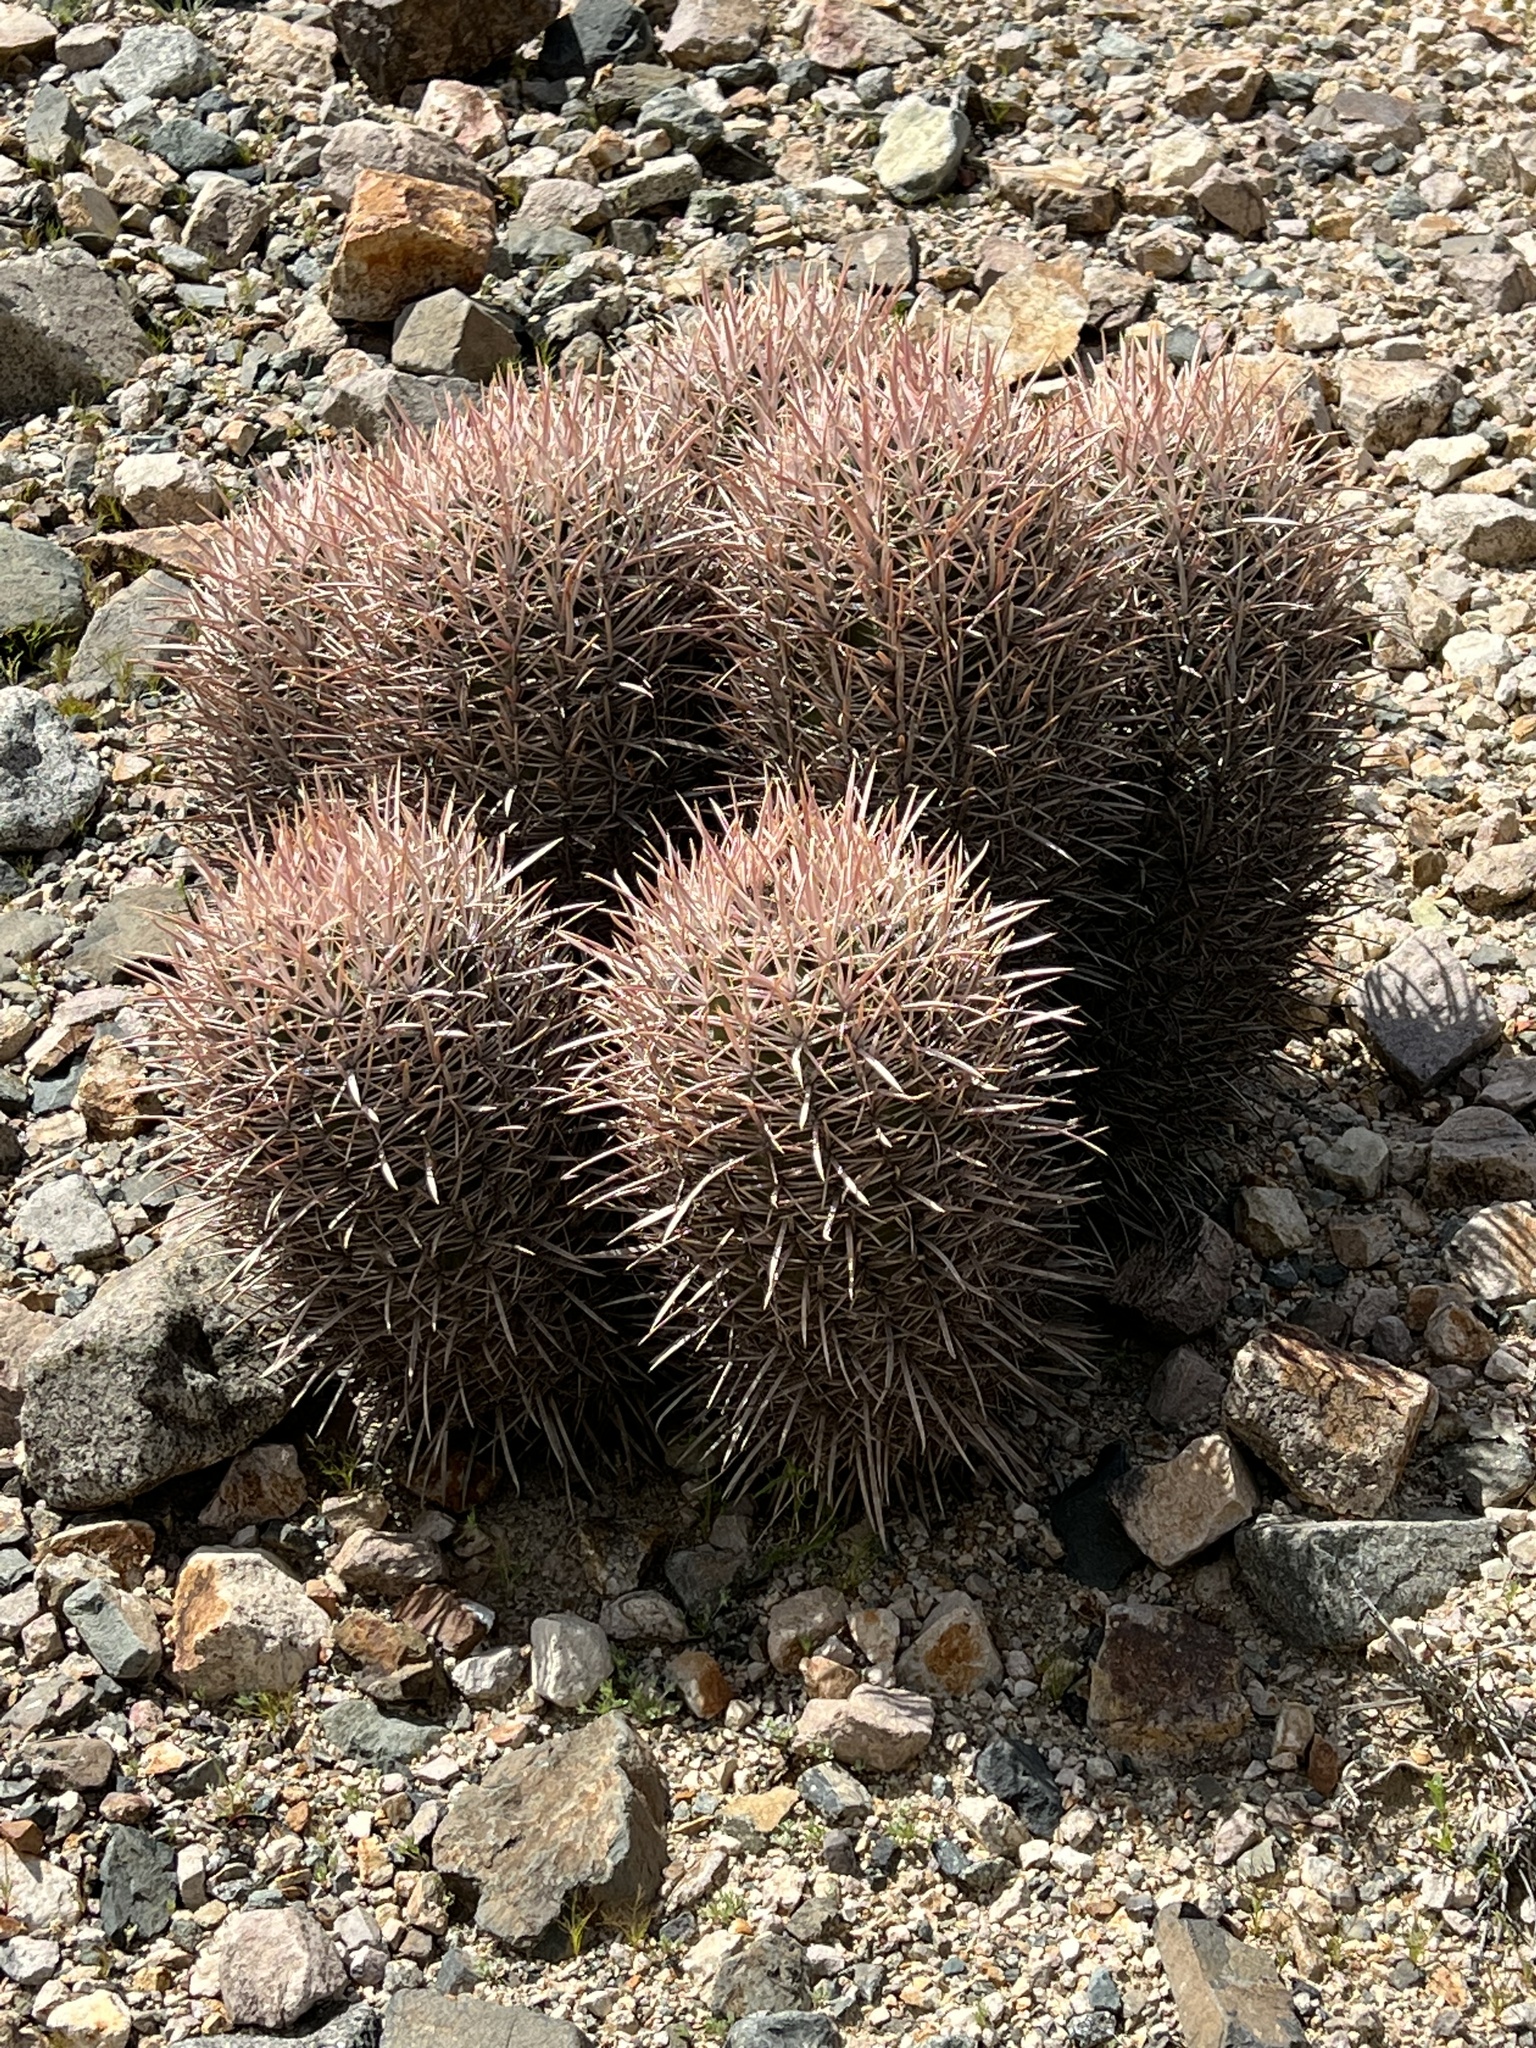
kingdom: Plantae
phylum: Tracheophyta
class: Magnoliopsida
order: Caryophyllales
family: Cactaceae
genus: Echinocactus
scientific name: Echinocactus polycephalus
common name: Cottontop cactus
